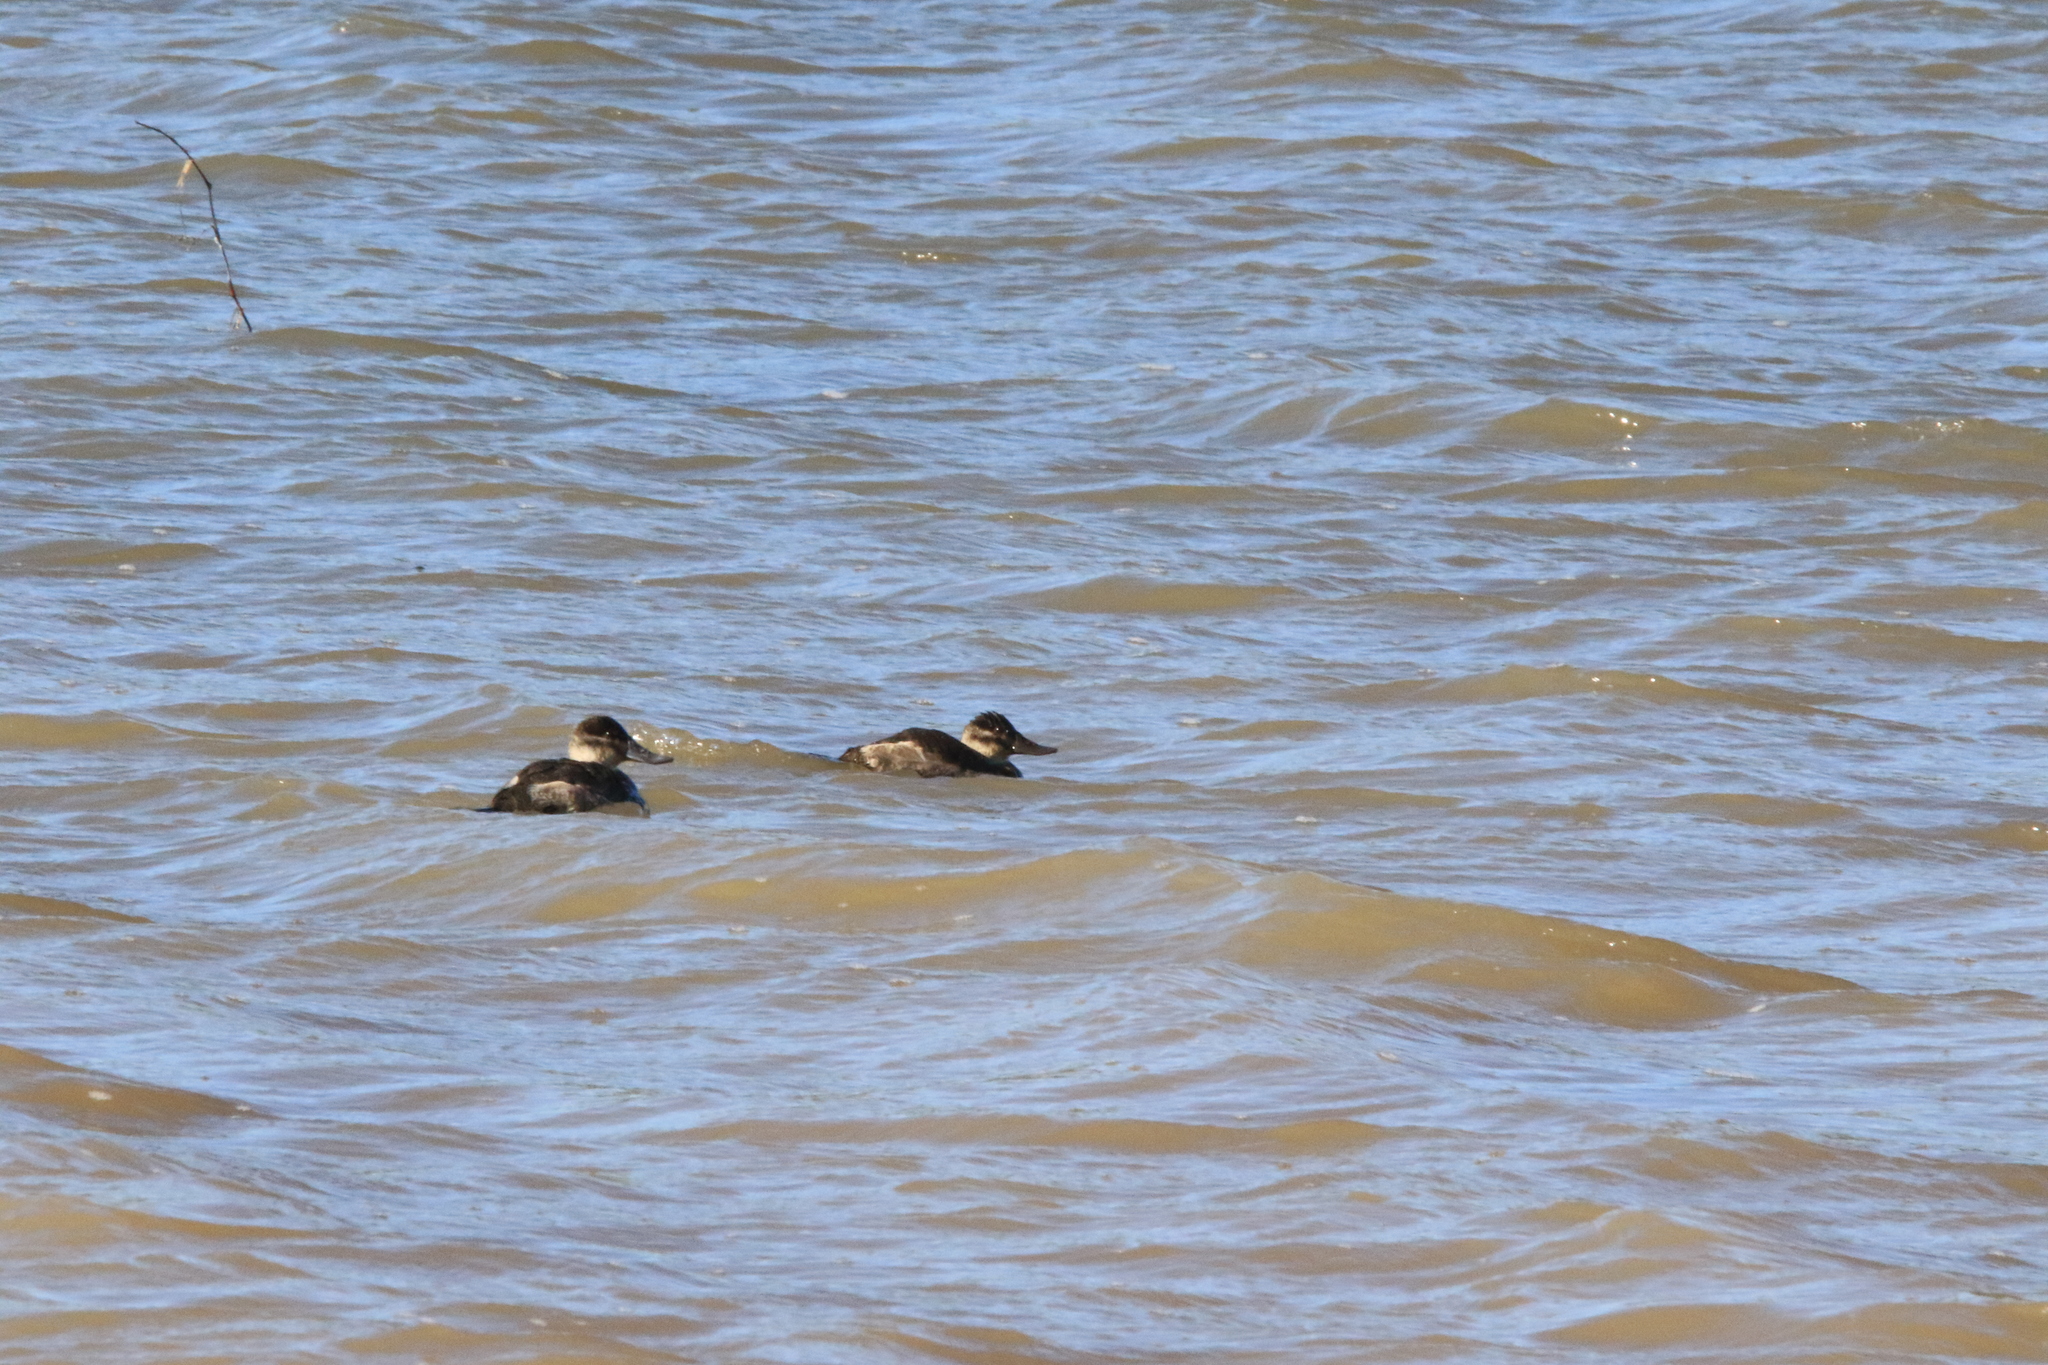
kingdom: Animalia
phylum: Chordata
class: Aves
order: Anseriformes
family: Anatidae
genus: Oxyura
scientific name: Oxyura jamaicensis
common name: Ruddy duck
